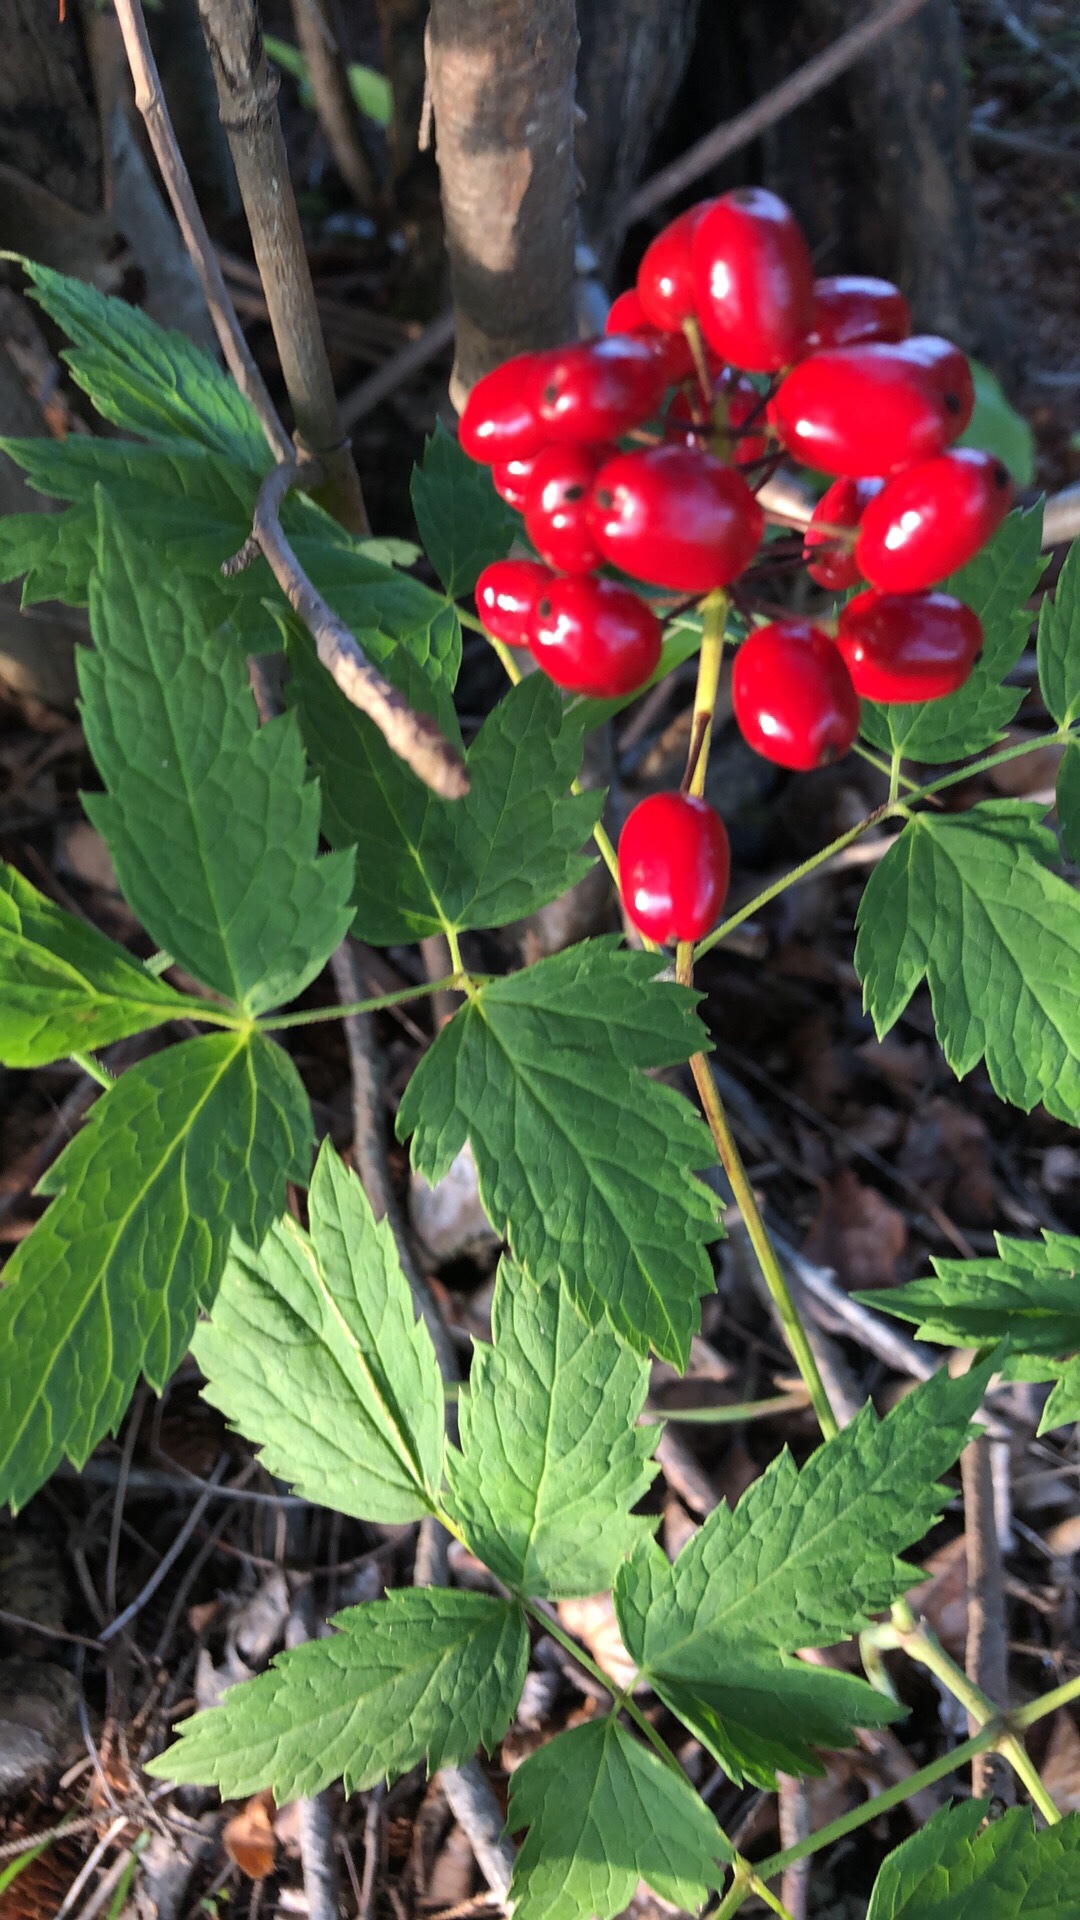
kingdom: Plantae
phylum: Tracheophyta
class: Magnoliopsida
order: Ranunculales
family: Ranunculaceae
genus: Actaea
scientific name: Actaea rubra
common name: Red baneberry
